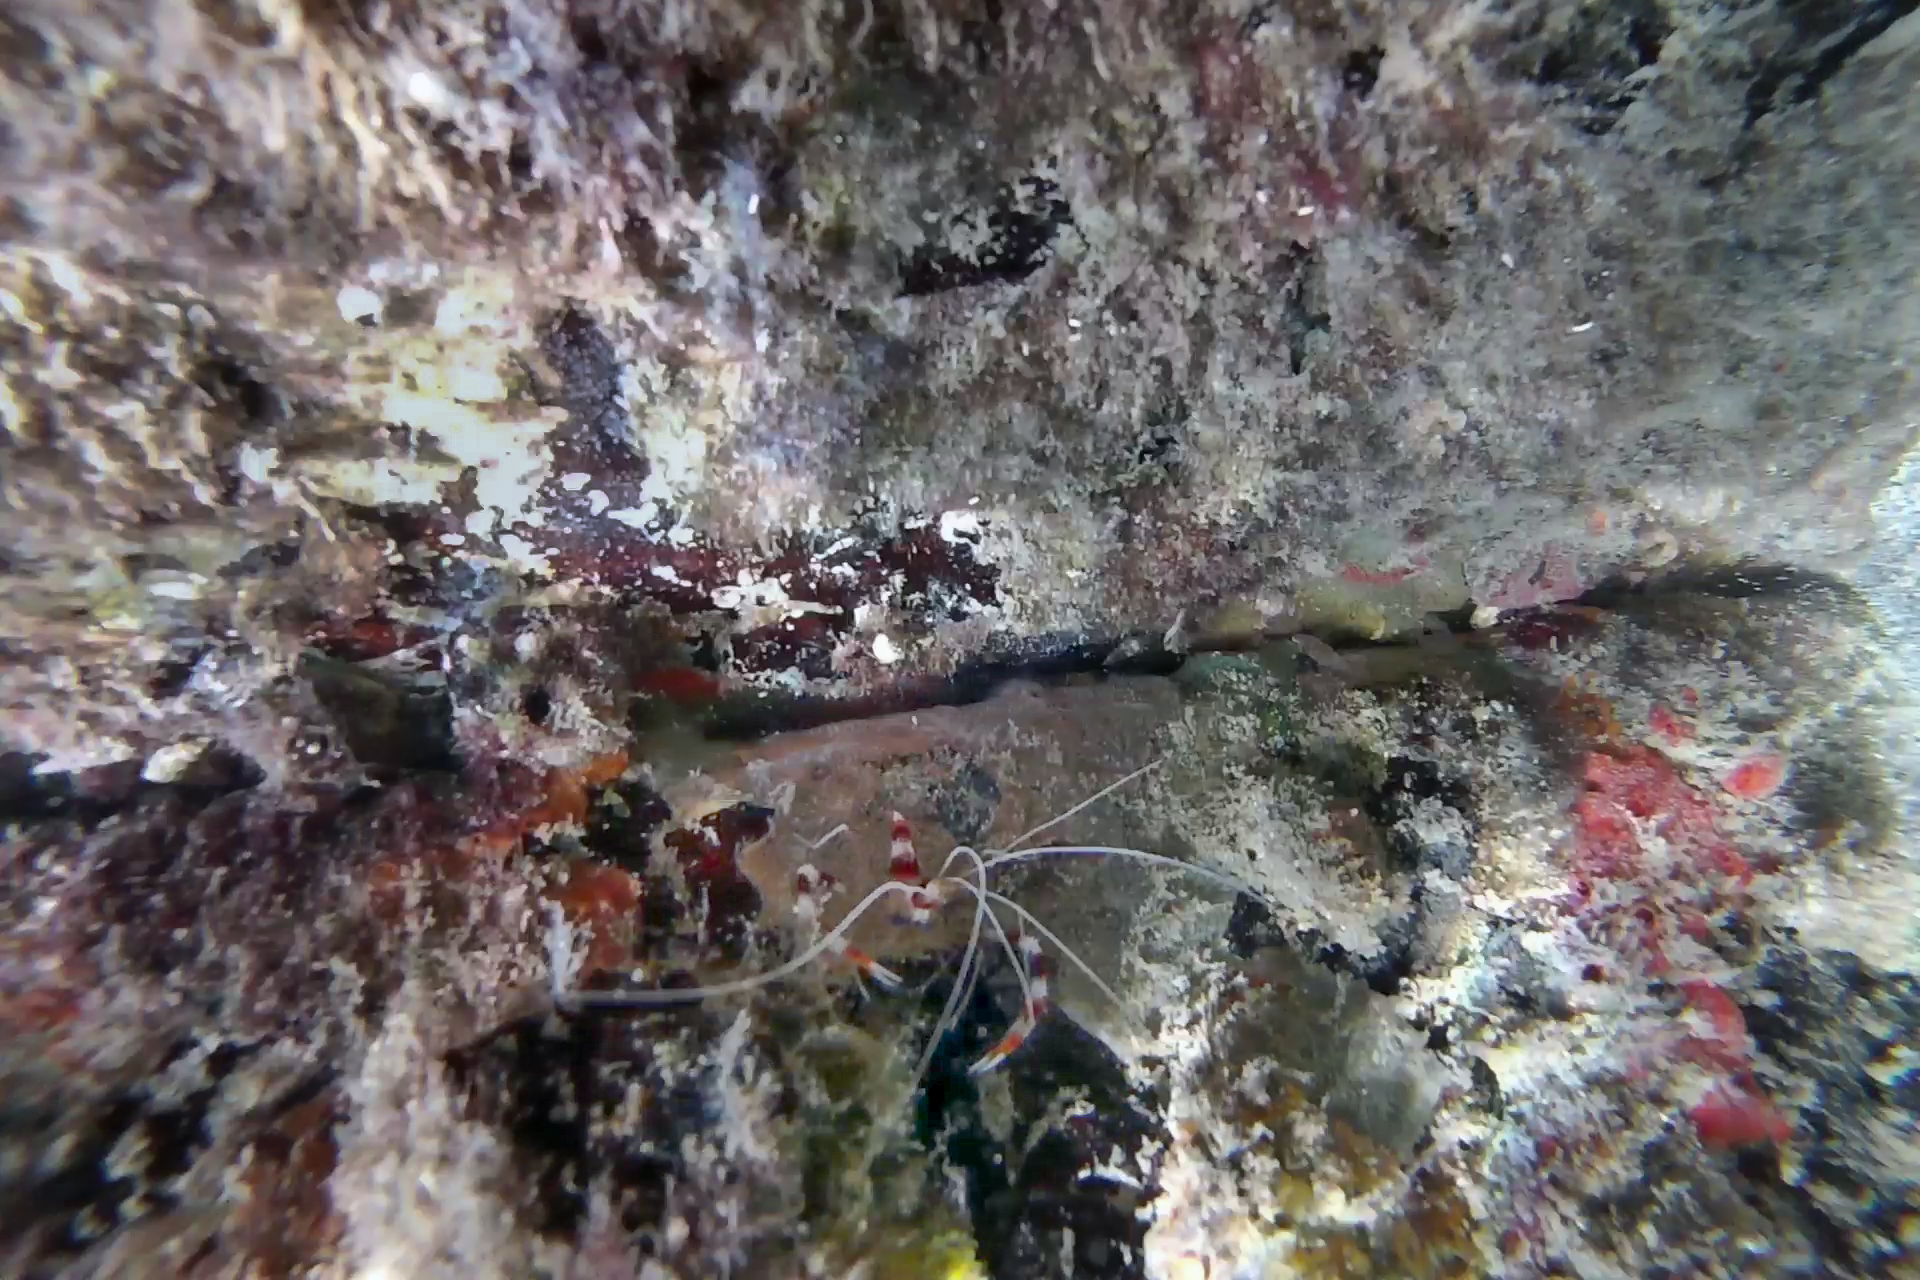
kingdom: Animalia
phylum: Arthropoda
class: Malacostraca
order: Decapoda
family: Stenopodidae
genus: Stenopus
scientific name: Stenopus hispidus
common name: Banded coral shrimp
